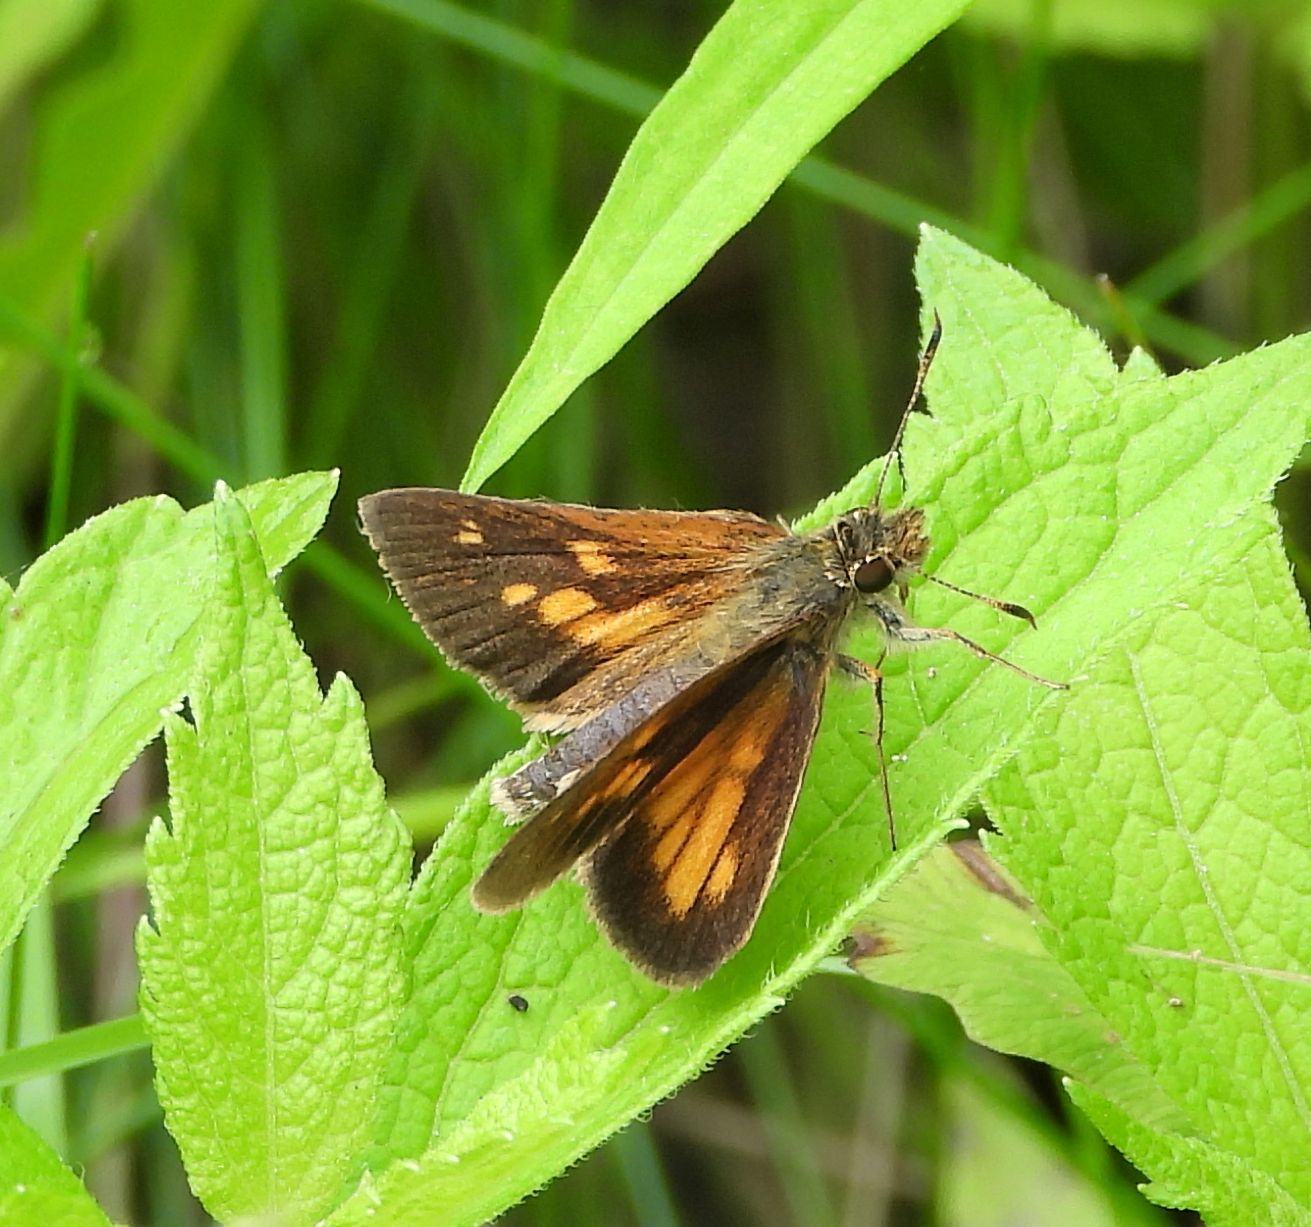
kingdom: Animalia
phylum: Arthropoda
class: Insecta
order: Lepidoptera
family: Hesperiidae
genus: Poanes
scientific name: Poanes viator
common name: Broad-winged skipper
